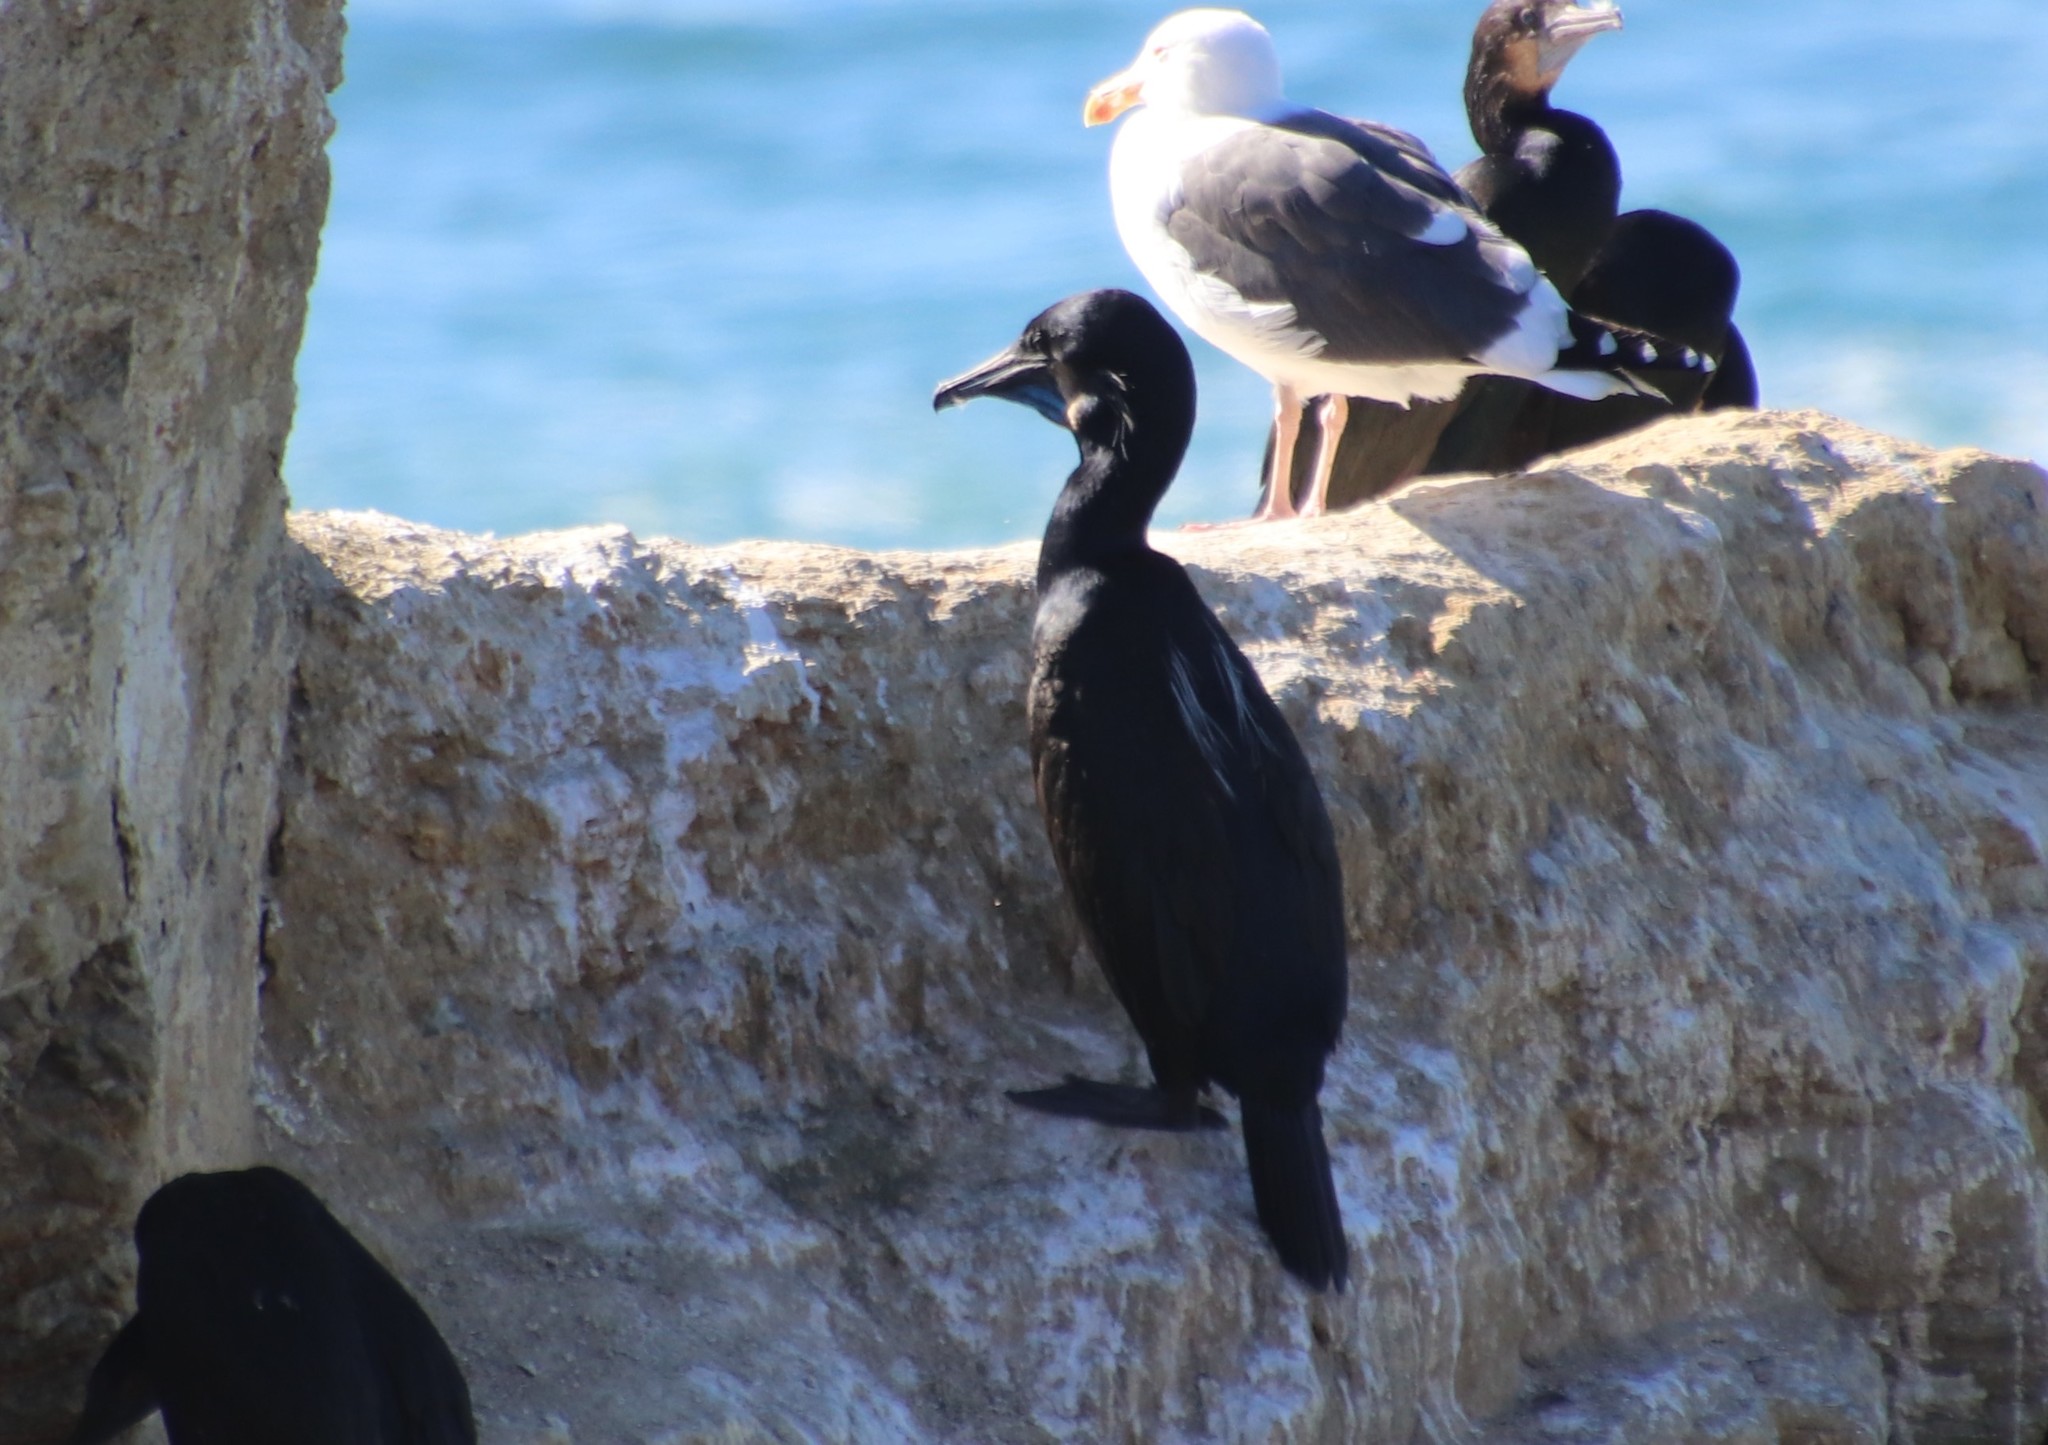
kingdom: Animalia
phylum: Chordata
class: Aves
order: Suliformes
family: Phalacrocoracidae
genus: Urile
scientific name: Urile penicillatus
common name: Brandt's cormorant
